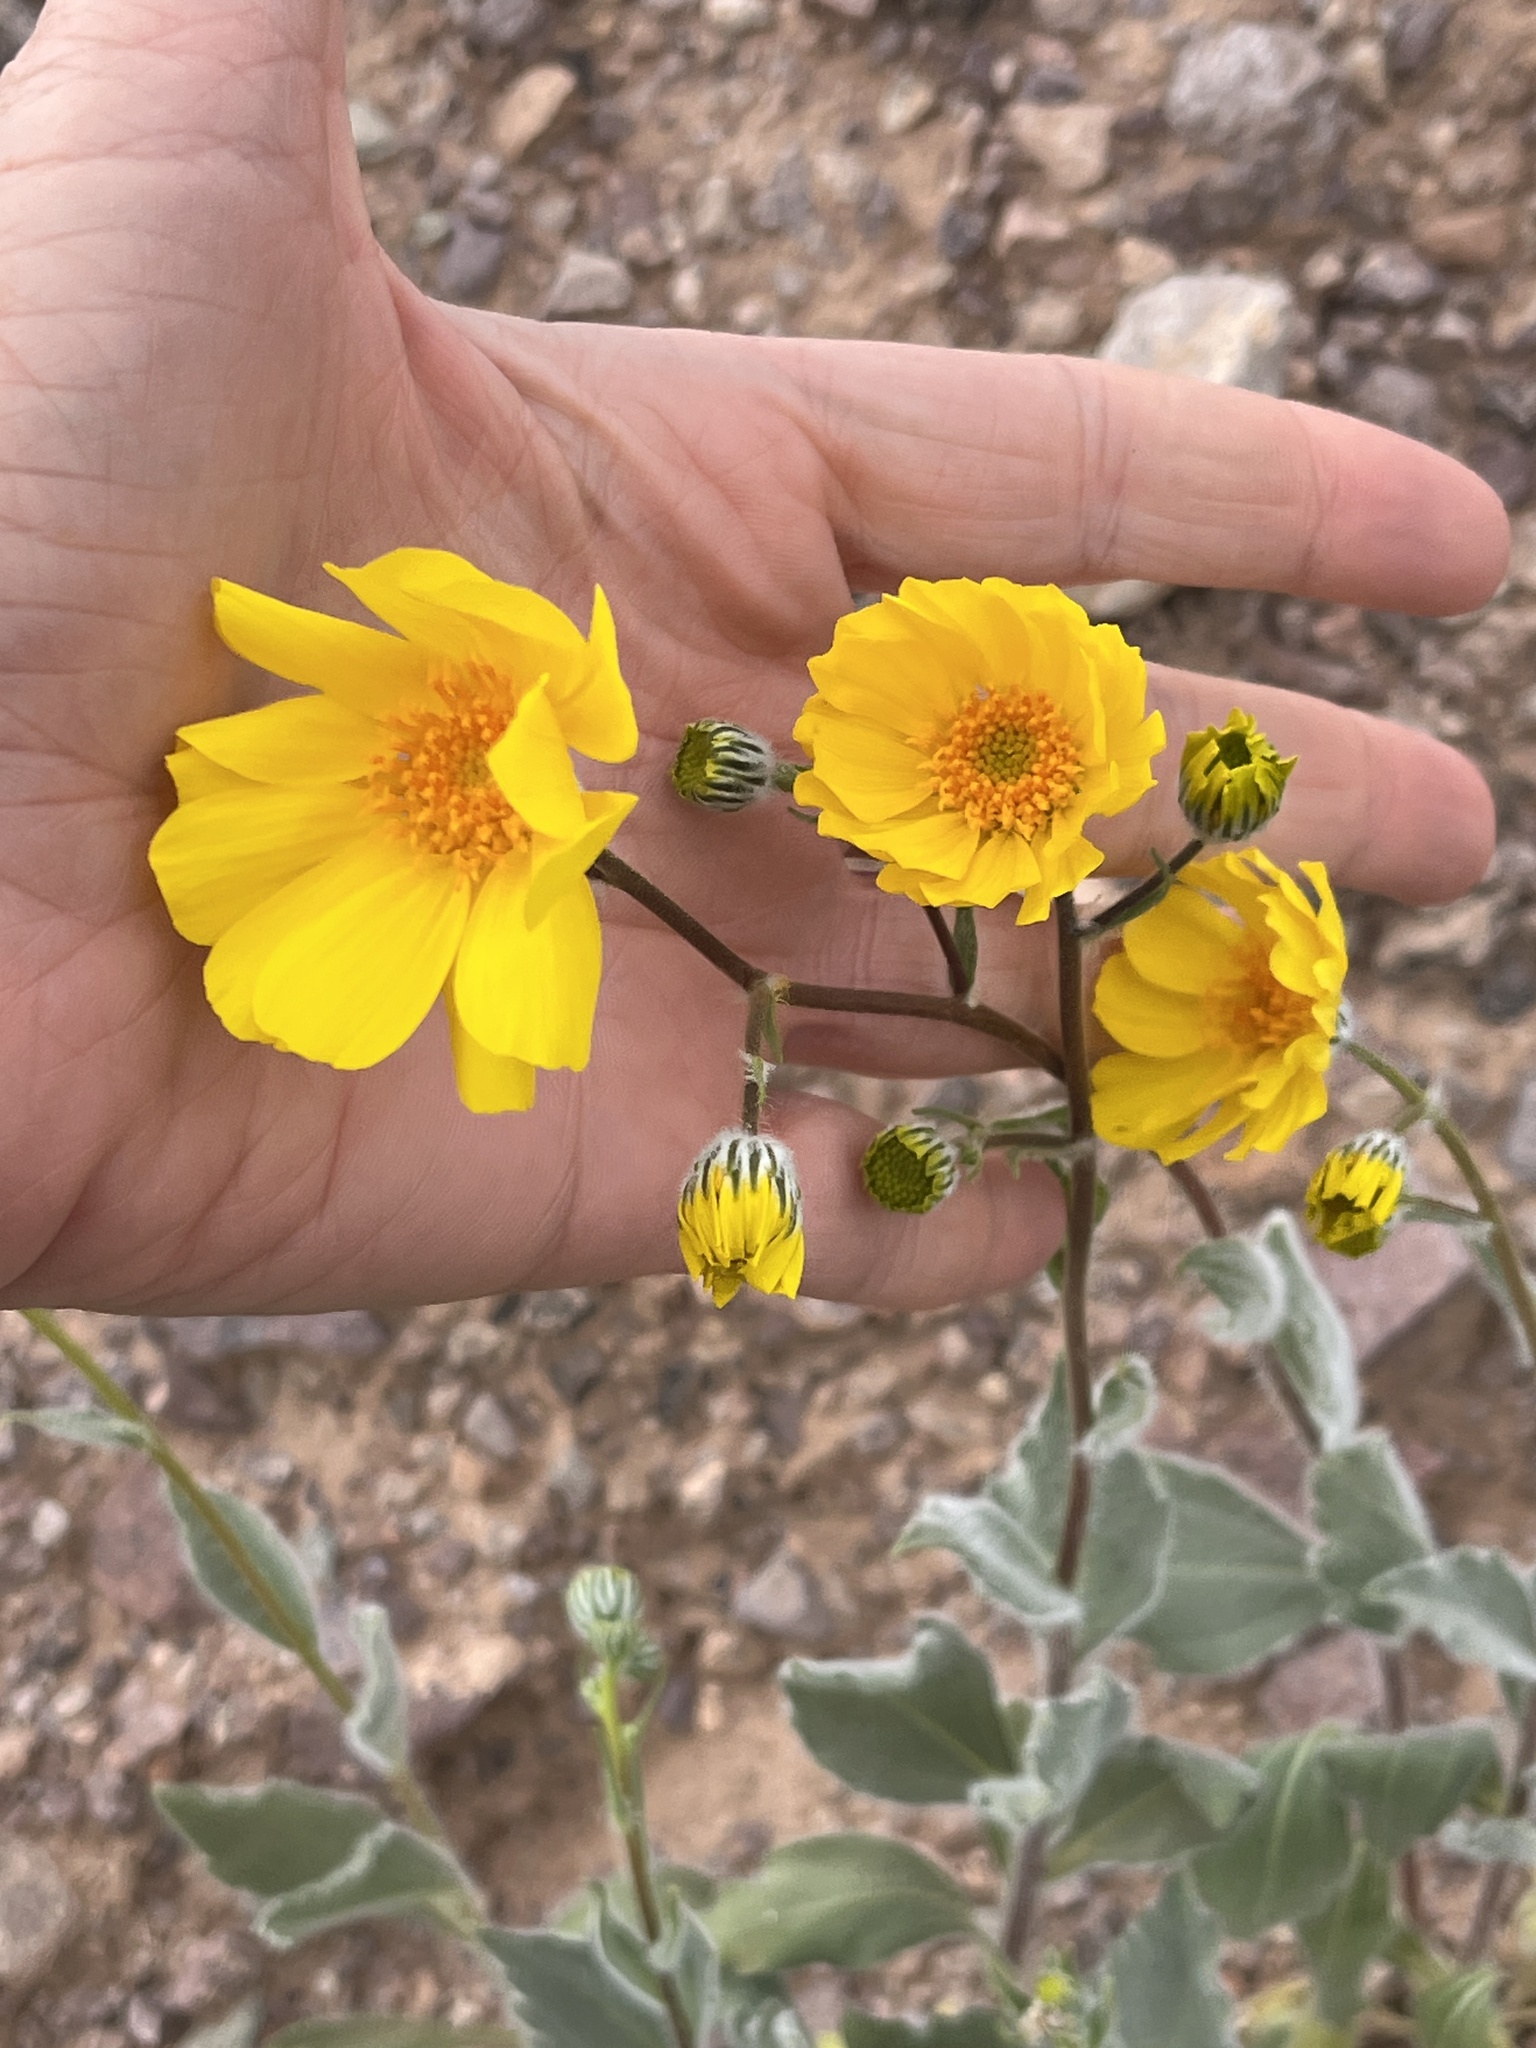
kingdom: Plantae
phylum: Tracheophyta
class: Magnoliopsida
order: Asterales
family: Asteraceae
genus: Geraea
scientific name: Geraea canescens
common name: Desert-gold
